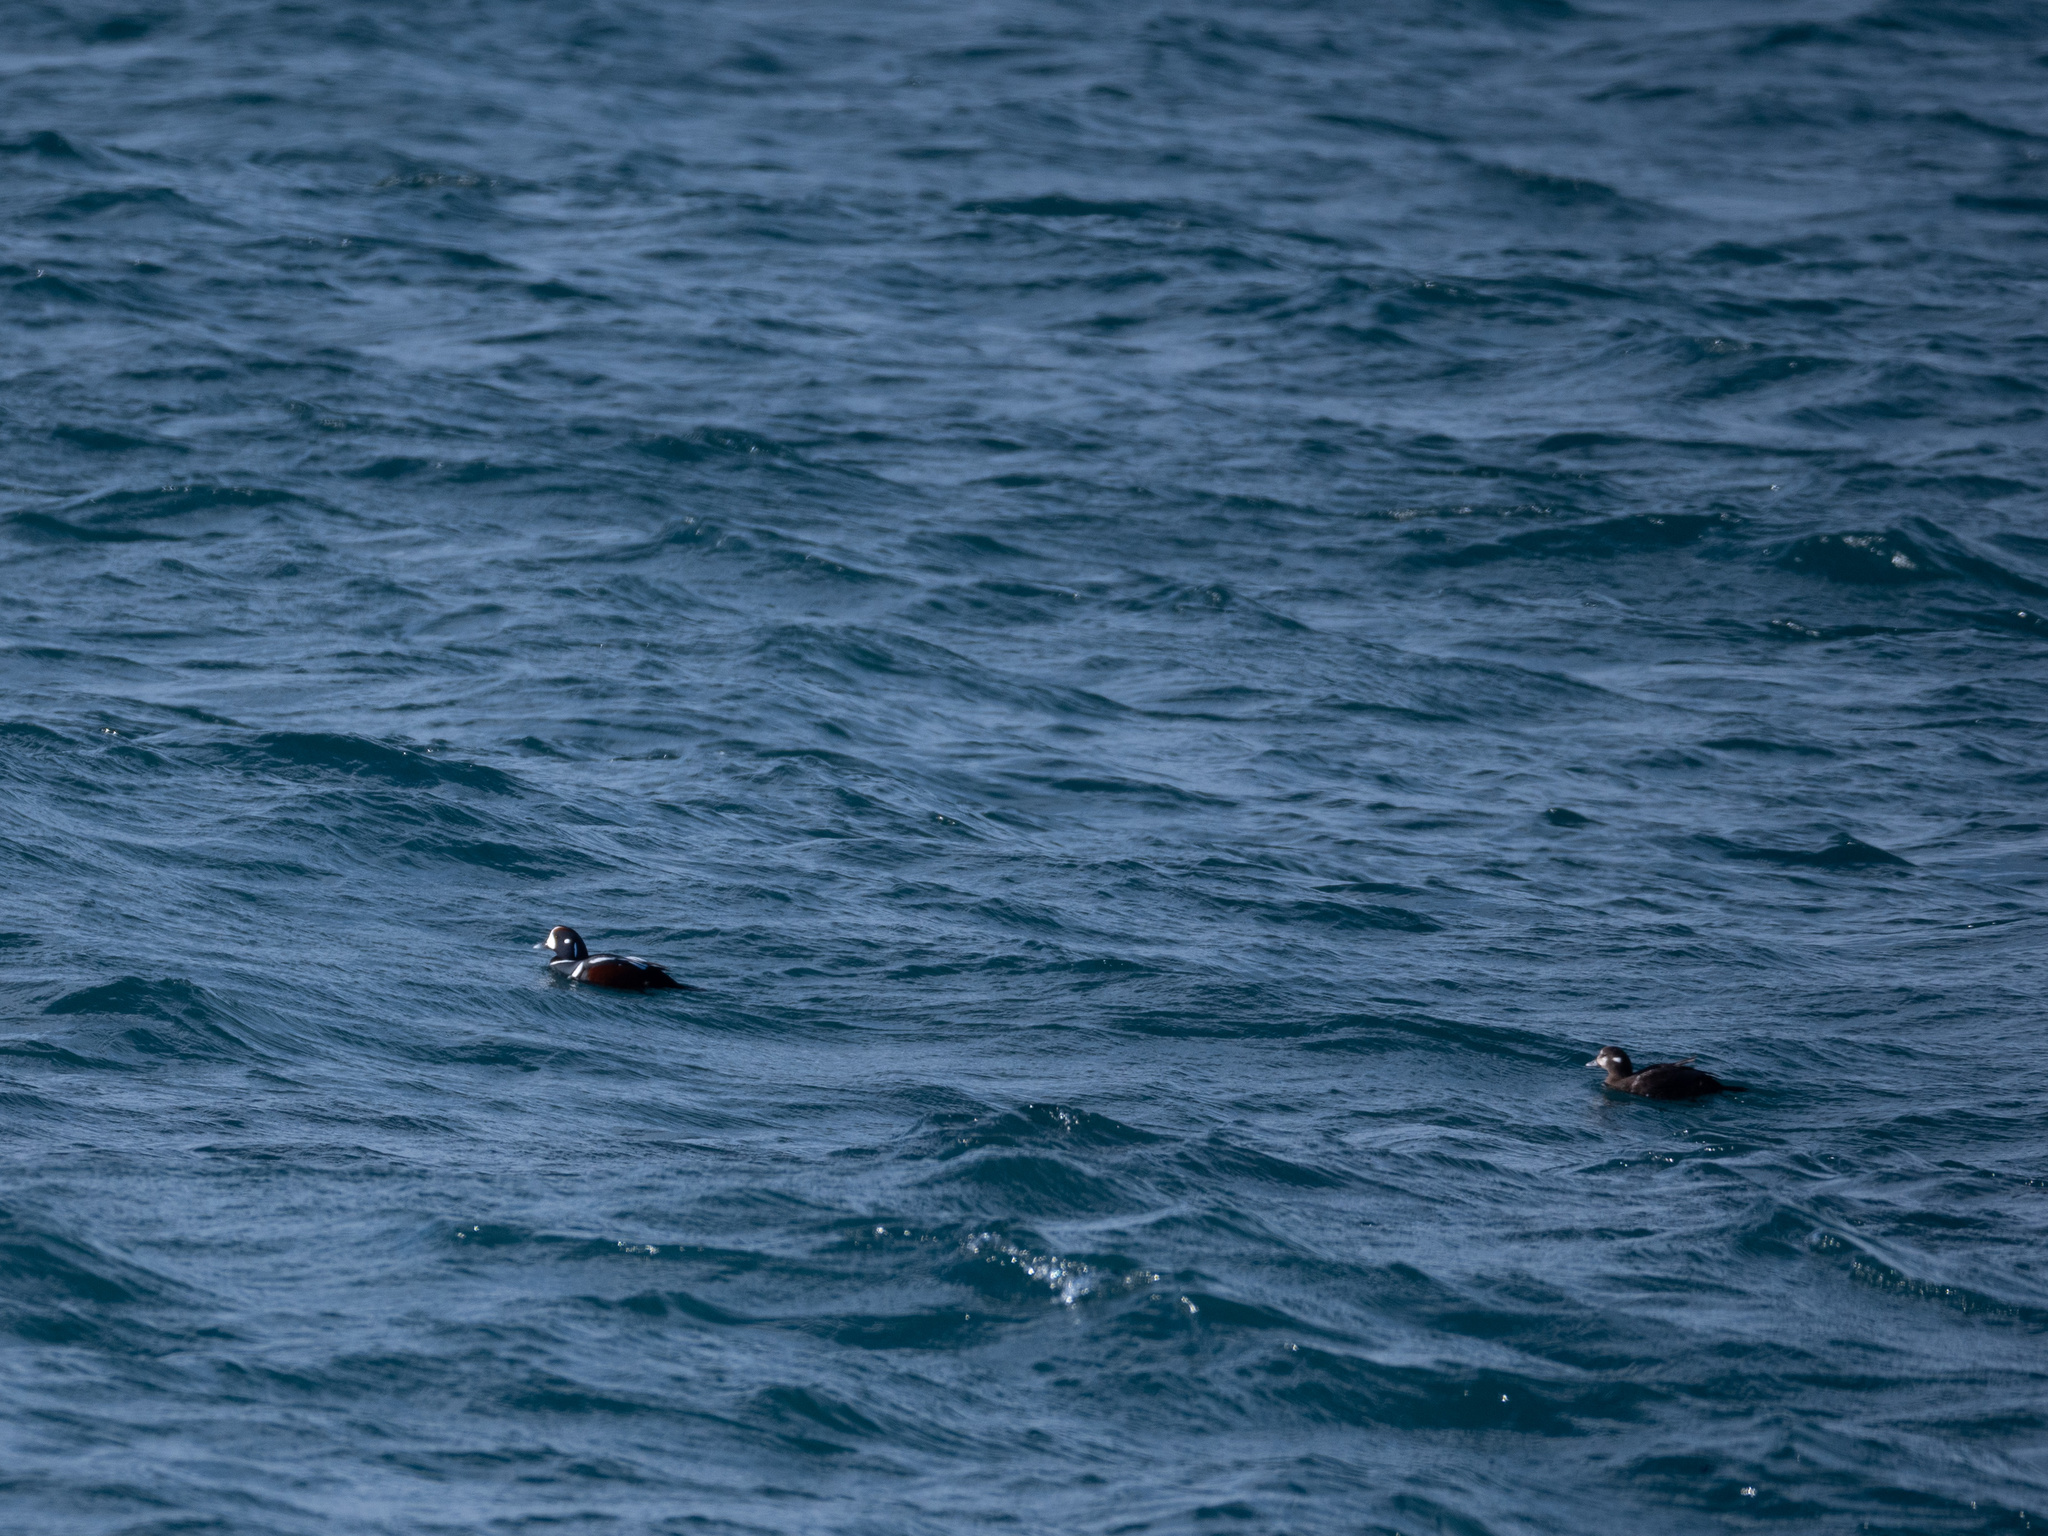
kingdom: Animalia
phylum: Chordata
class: Aves
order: Anseriformes
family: Anatidae
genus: Histrionicus
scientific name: Histrionicus histrionicus
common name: Harlequin duck
